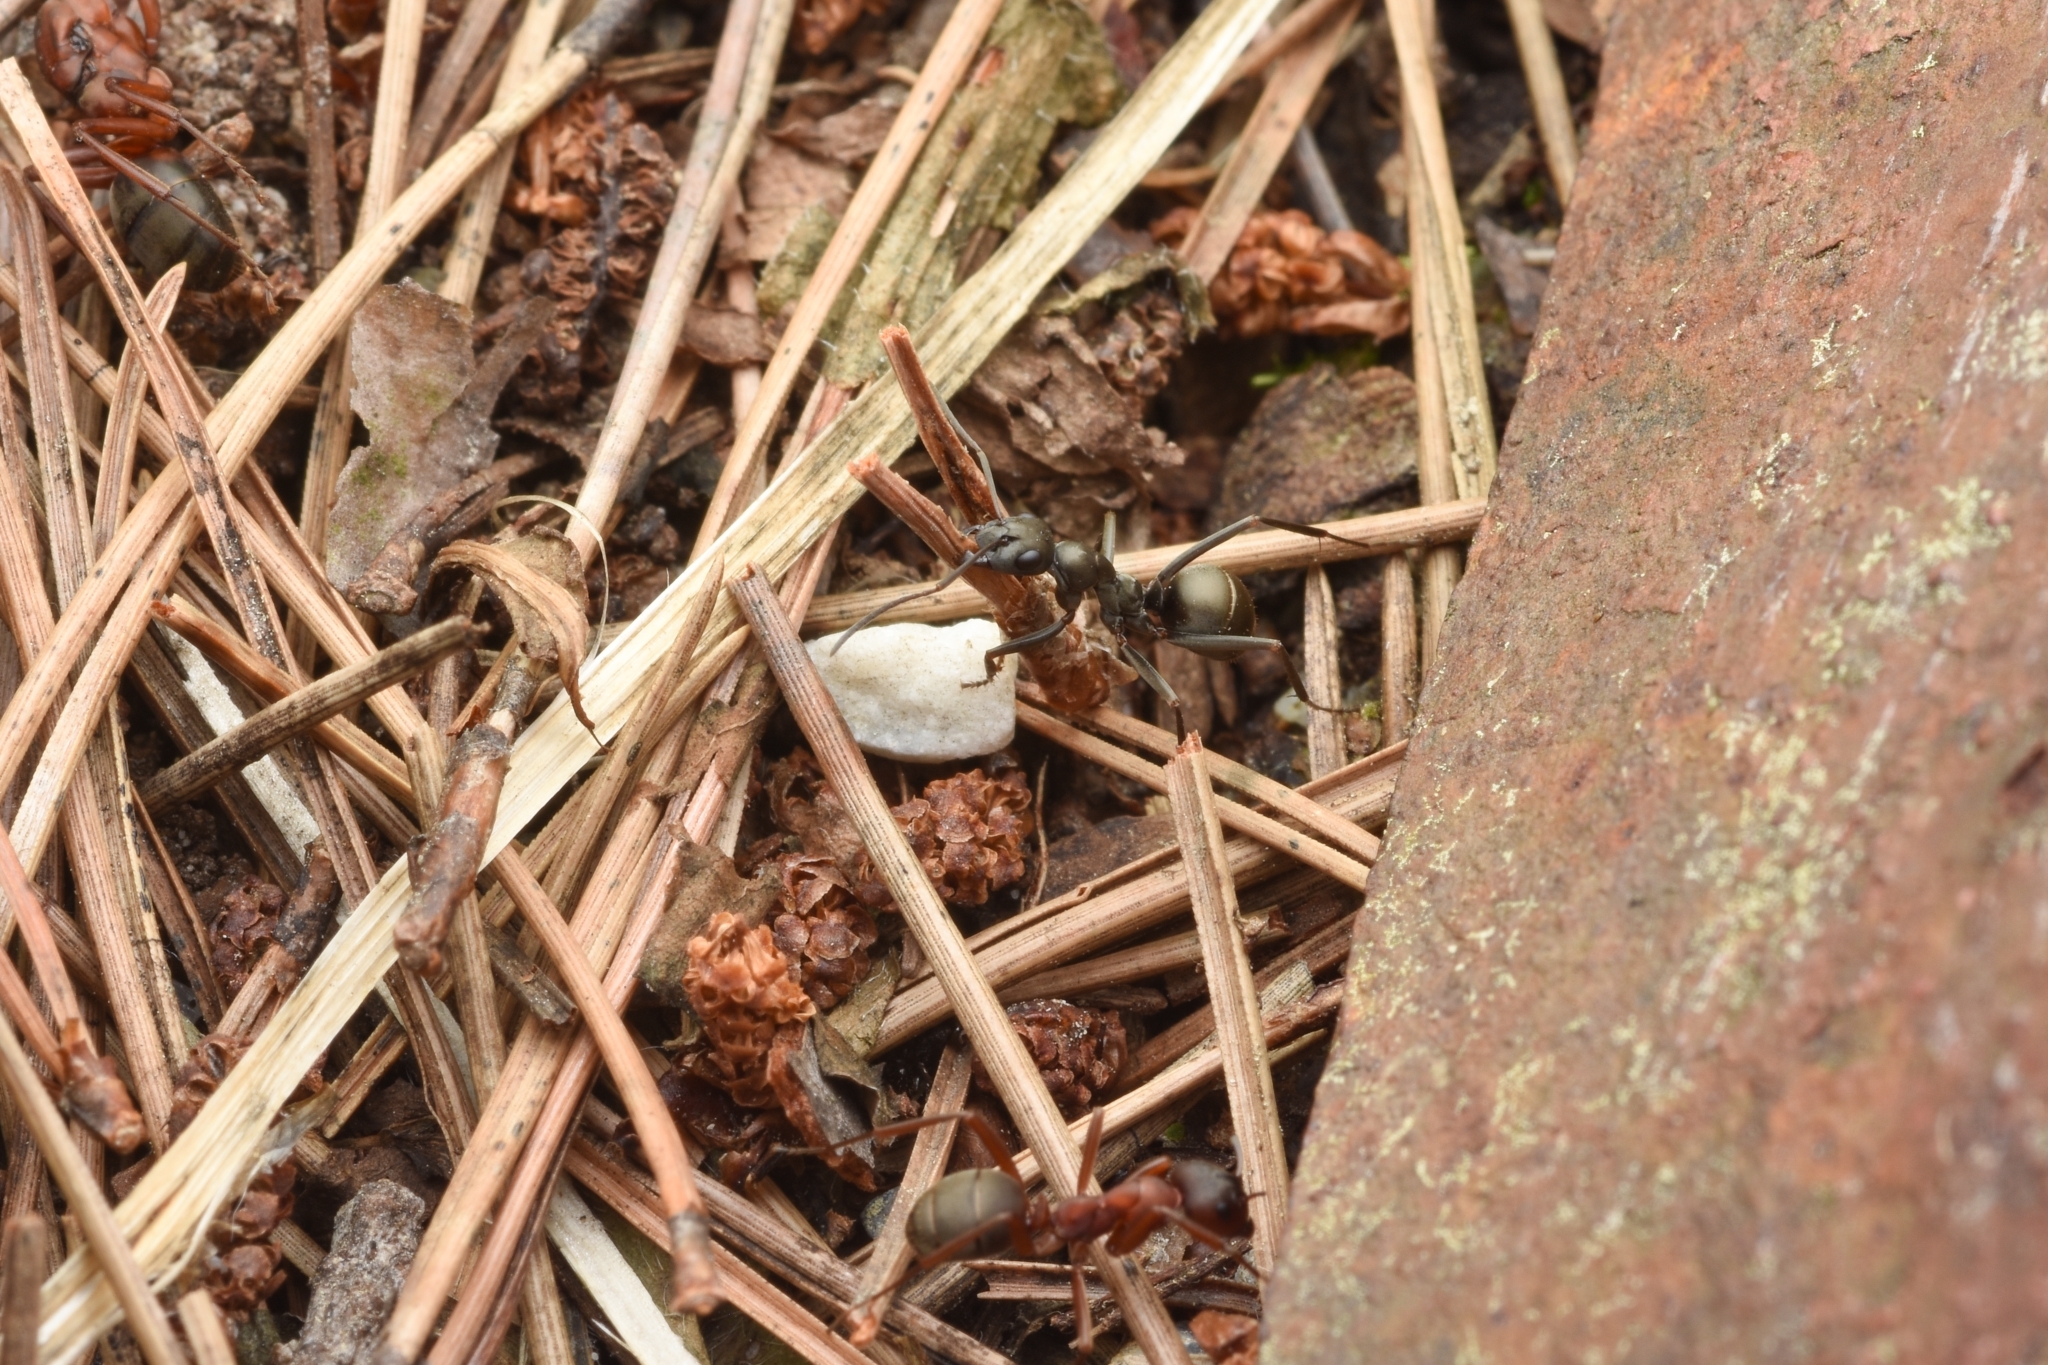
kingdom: Animalia
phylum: Arthropoda
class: Insecta
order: Hymenoptera
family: Formicidae
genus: Formica
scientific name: Formica sanguinea
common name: Blood-red ant
